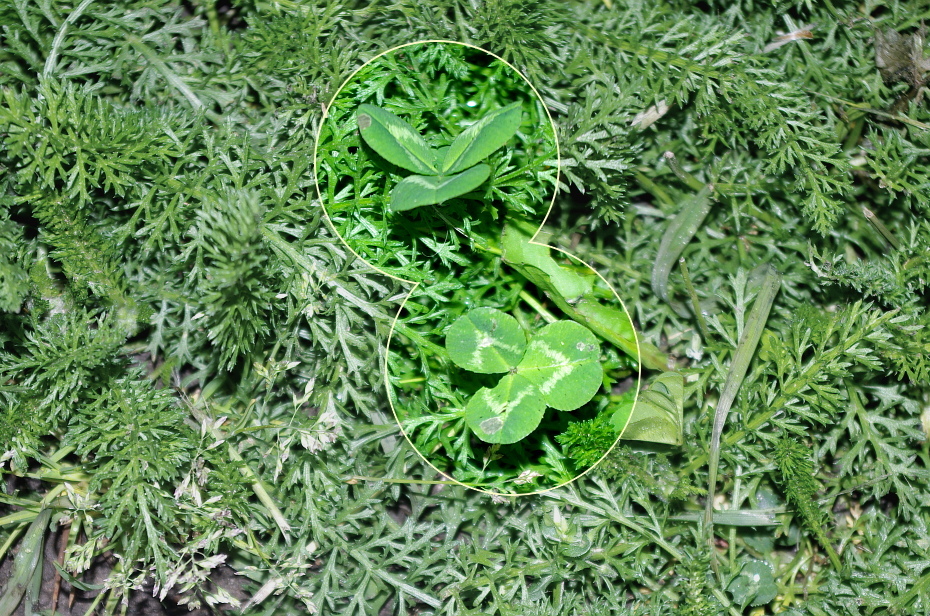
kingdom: Plantae
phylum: Tracheophyta
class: Magnoliopsida
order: Fabales
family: Fabaceae
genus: Trifolium
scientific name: Trifolium repens
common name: White clover
